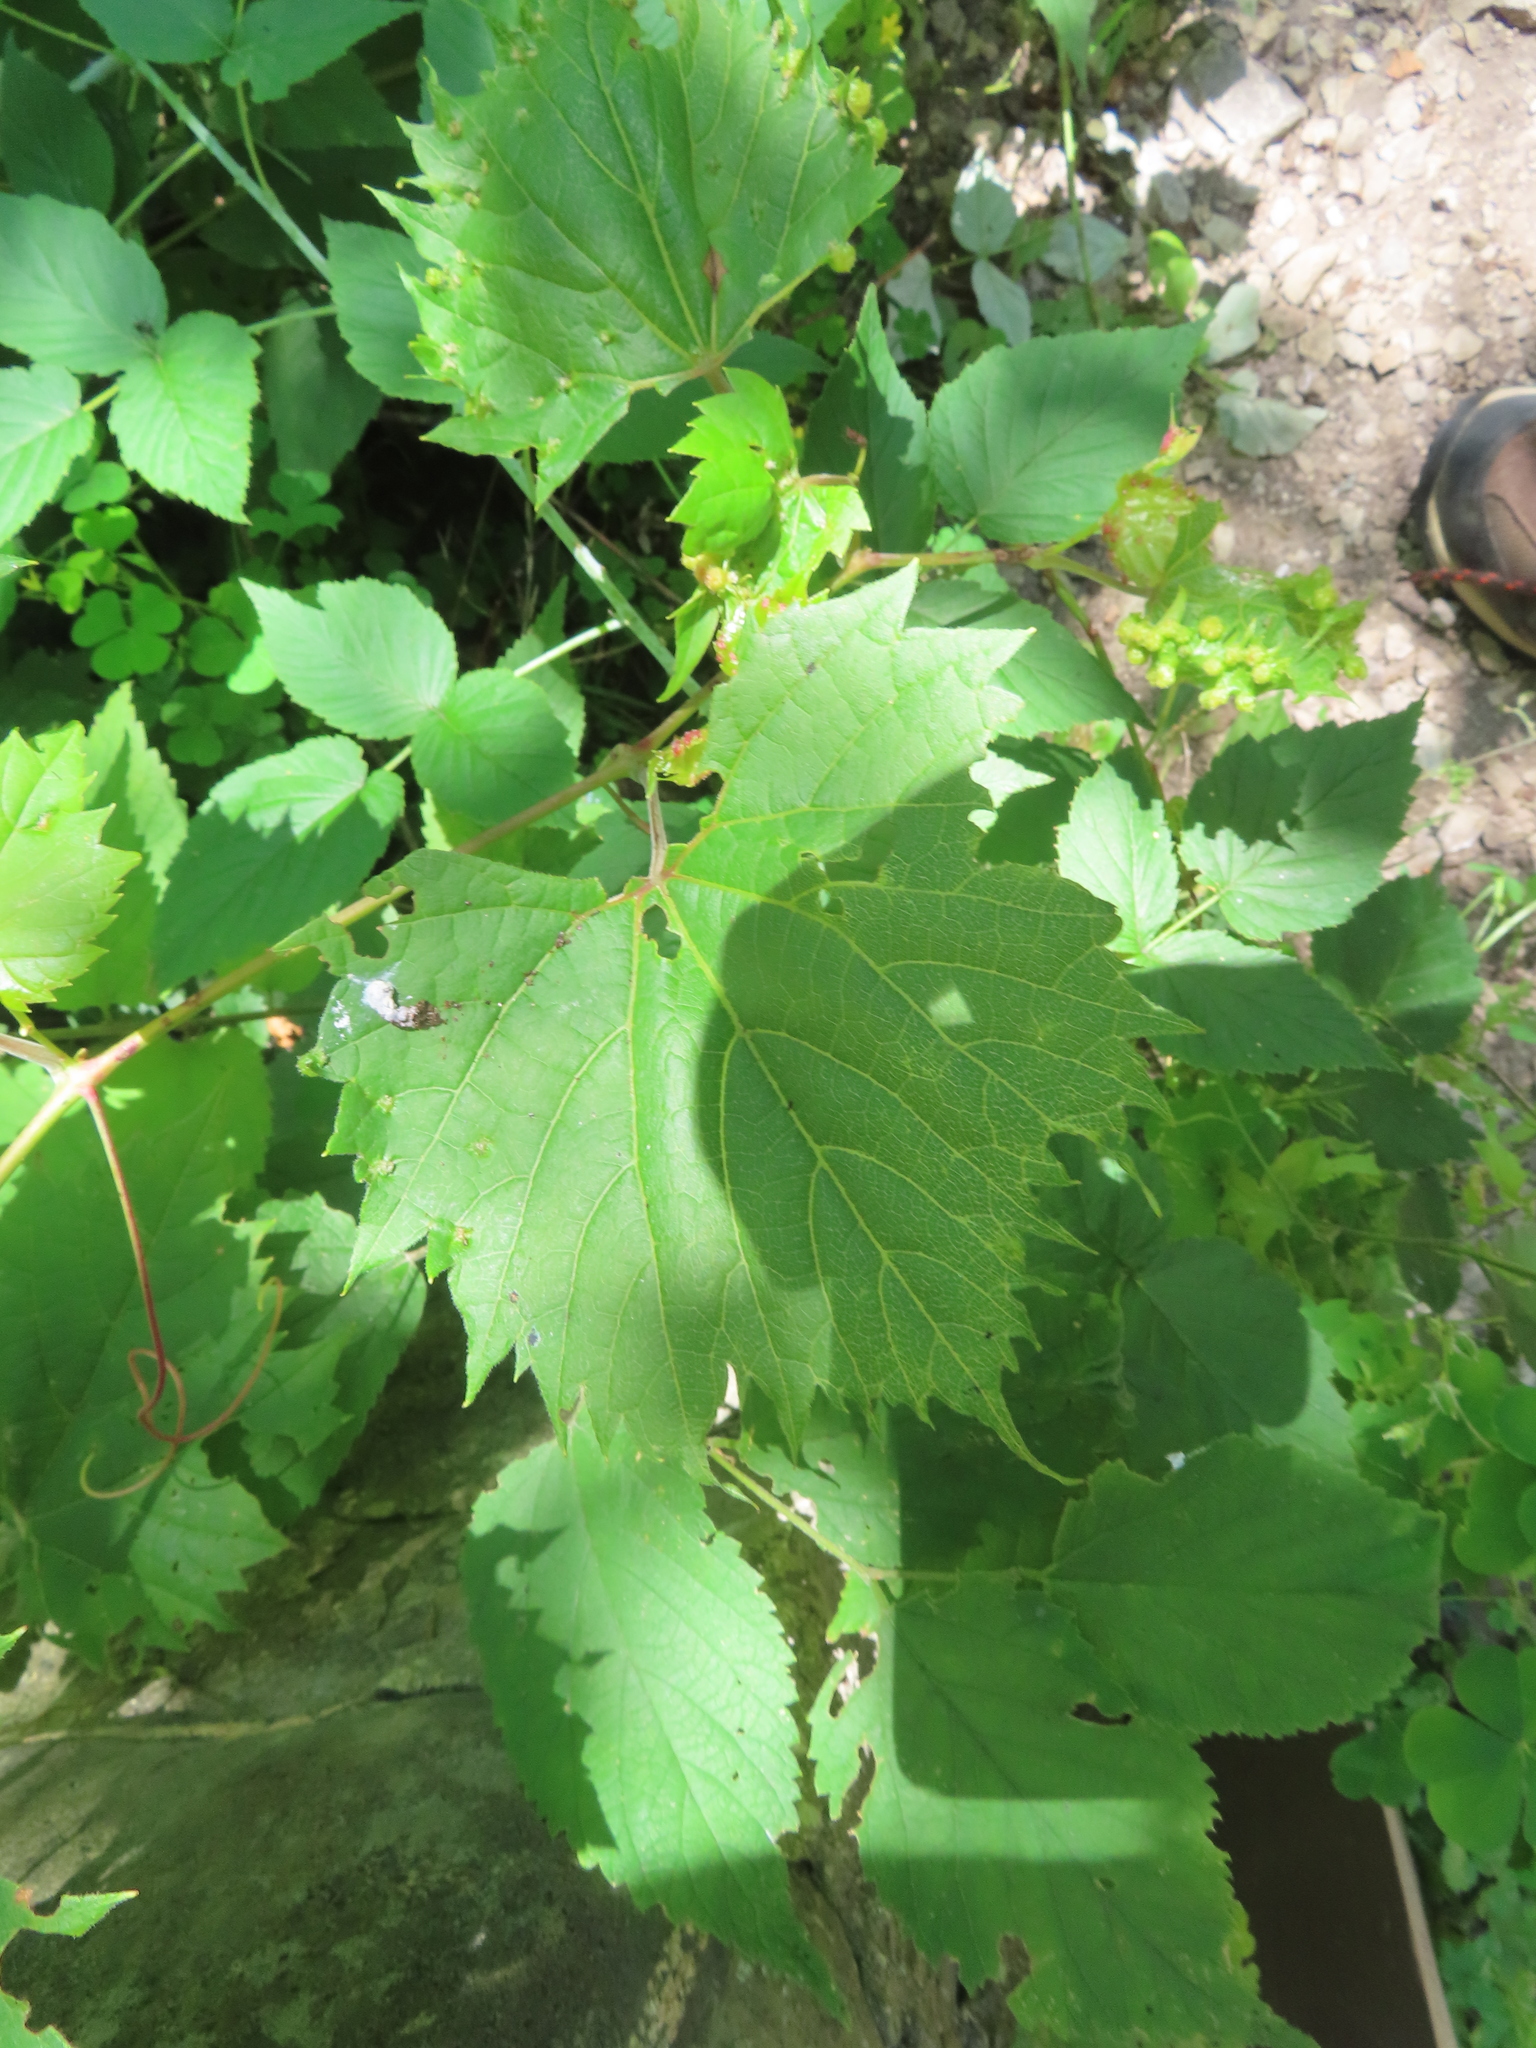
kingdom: Plantae
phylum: Tracheophyta
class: Magnoliopsida
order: Vitales
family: Vitaceae
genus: Vitis
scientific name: Vitis riparia
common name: Frost grape
